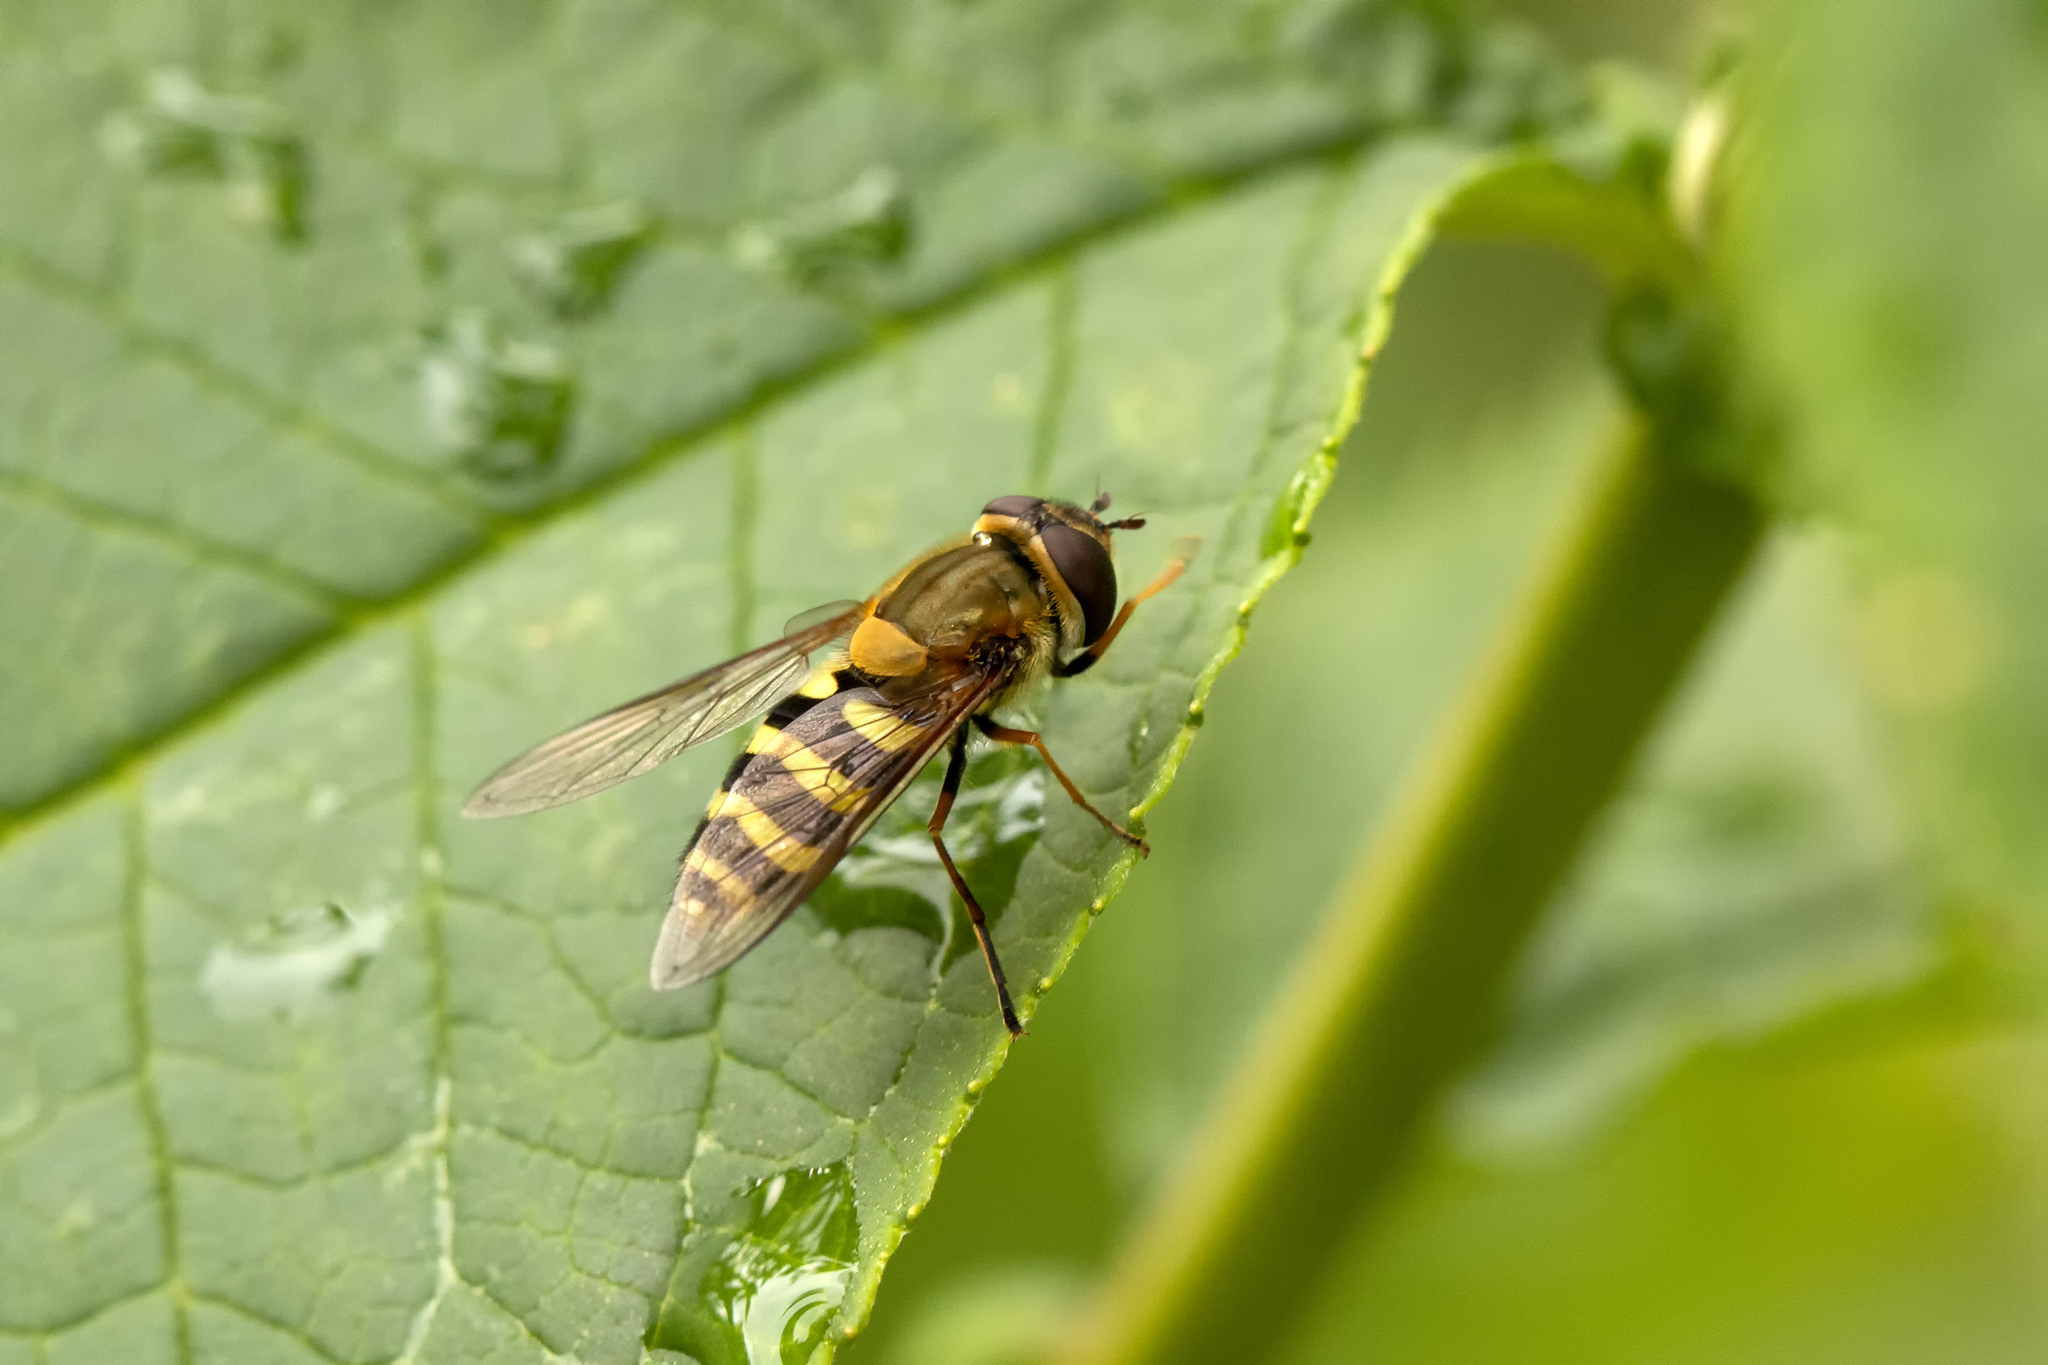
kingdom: Animalia
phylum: Arthropoda
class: Insecta
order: Diptera
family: Syrphidae
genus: Syrphus
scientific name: Syrphus
